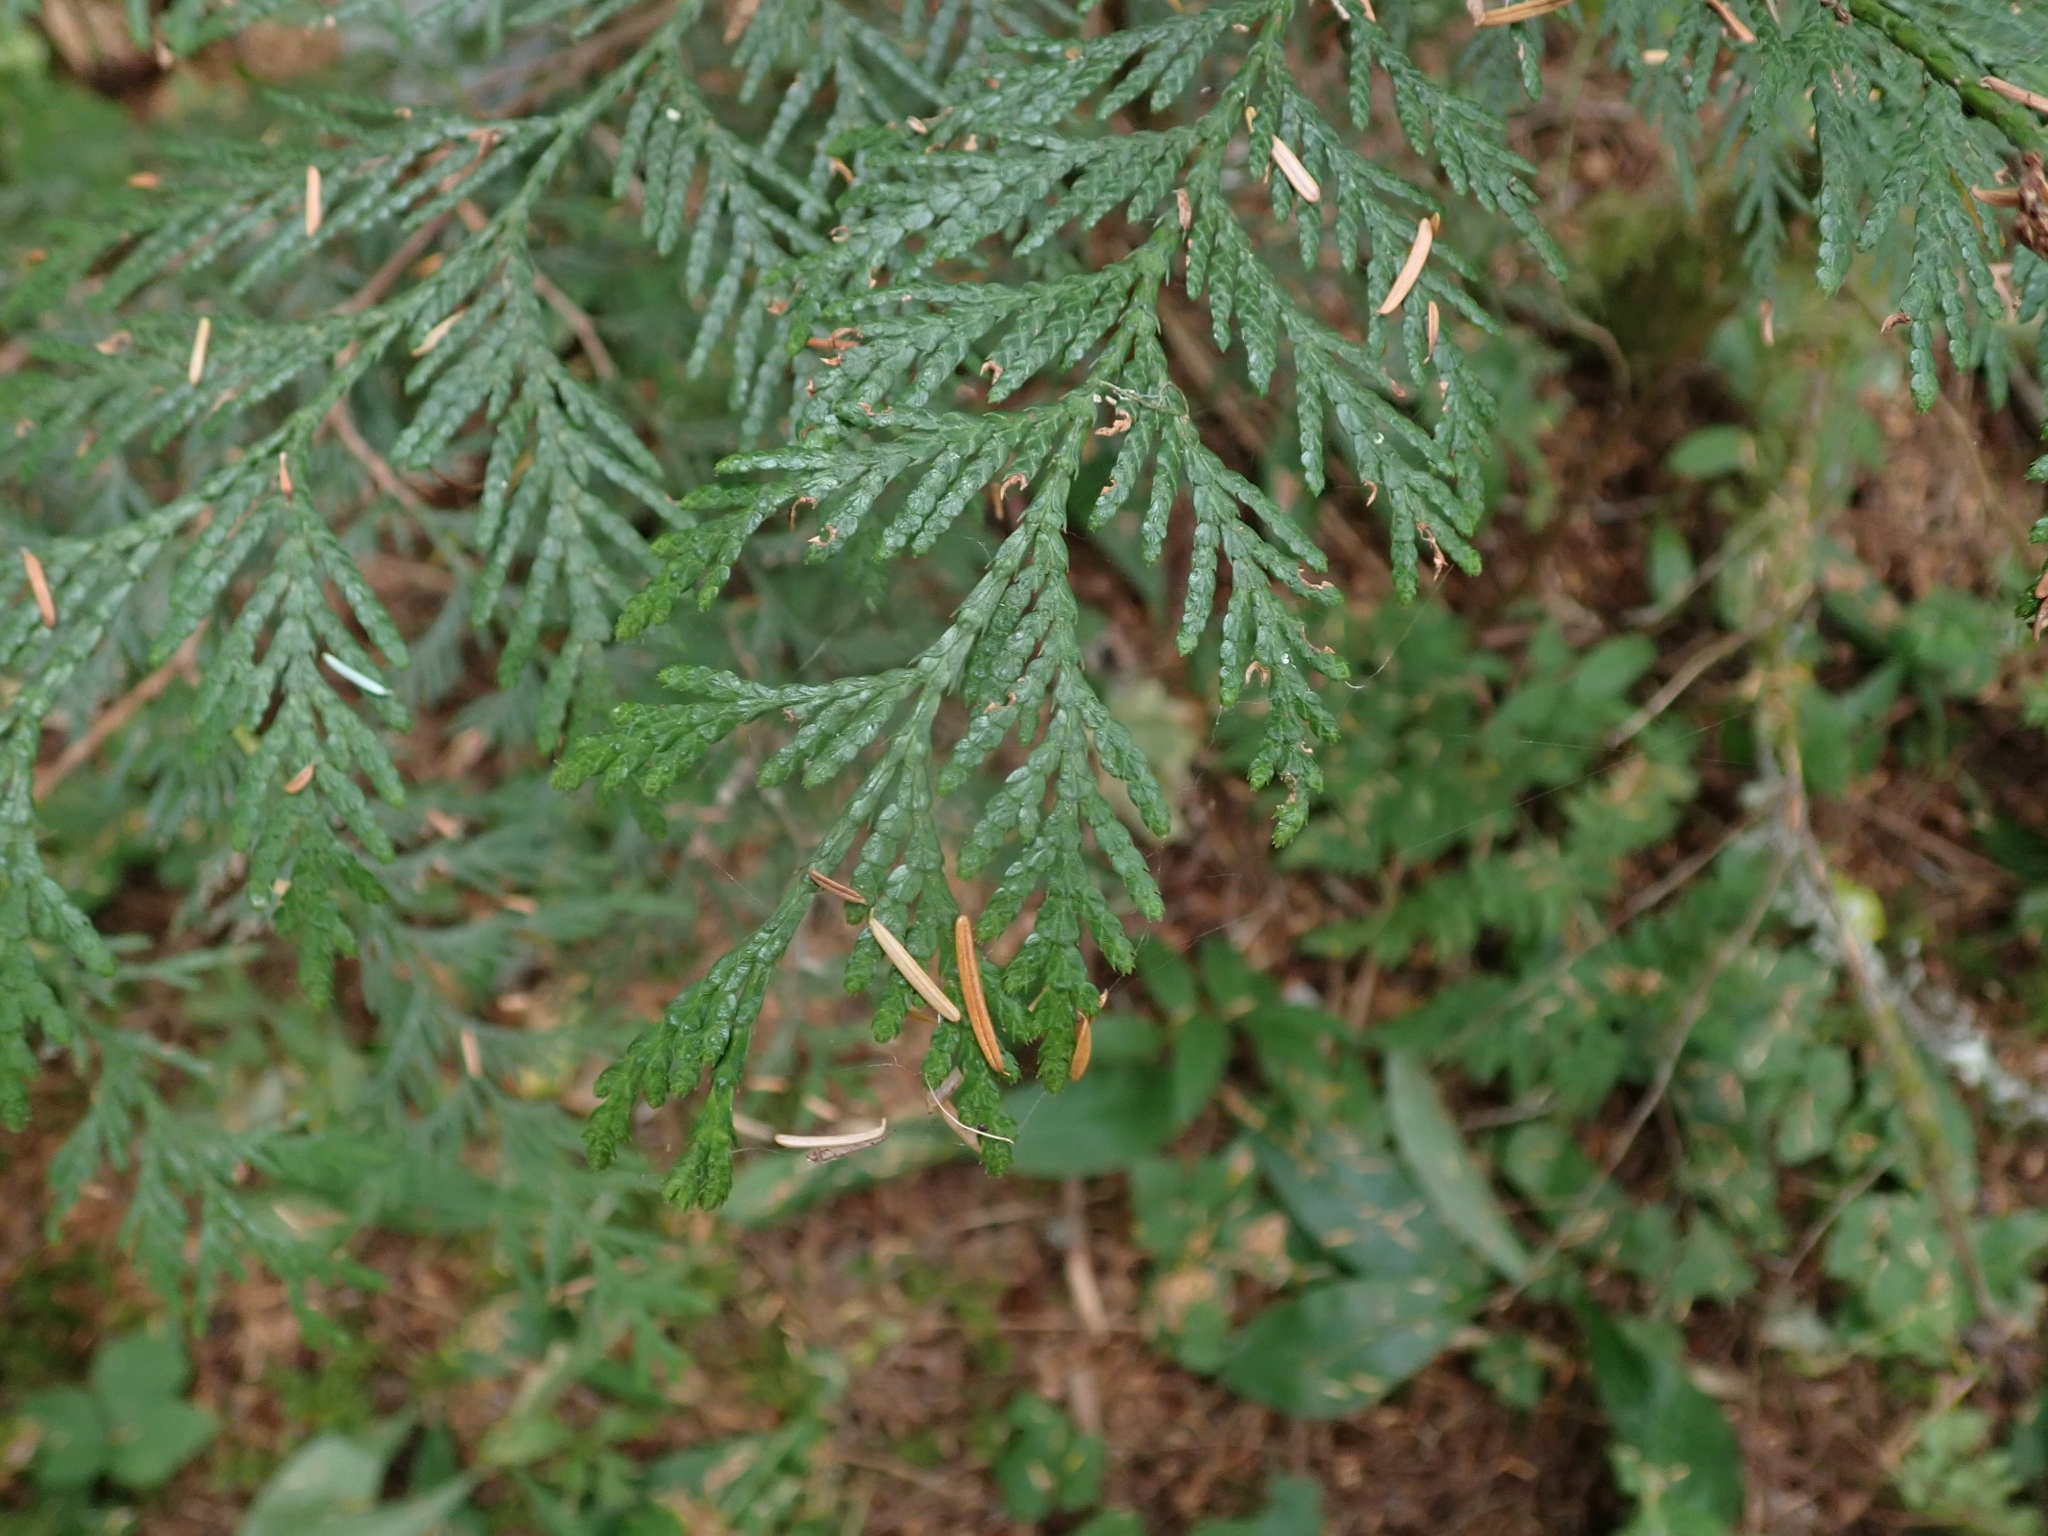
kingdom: Plantae
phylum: Tracheophyta
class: Pinopsida
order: Pinales
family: Cupressaceae
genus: Thuja
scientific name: Thuja plicata
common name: Western red-cedar
